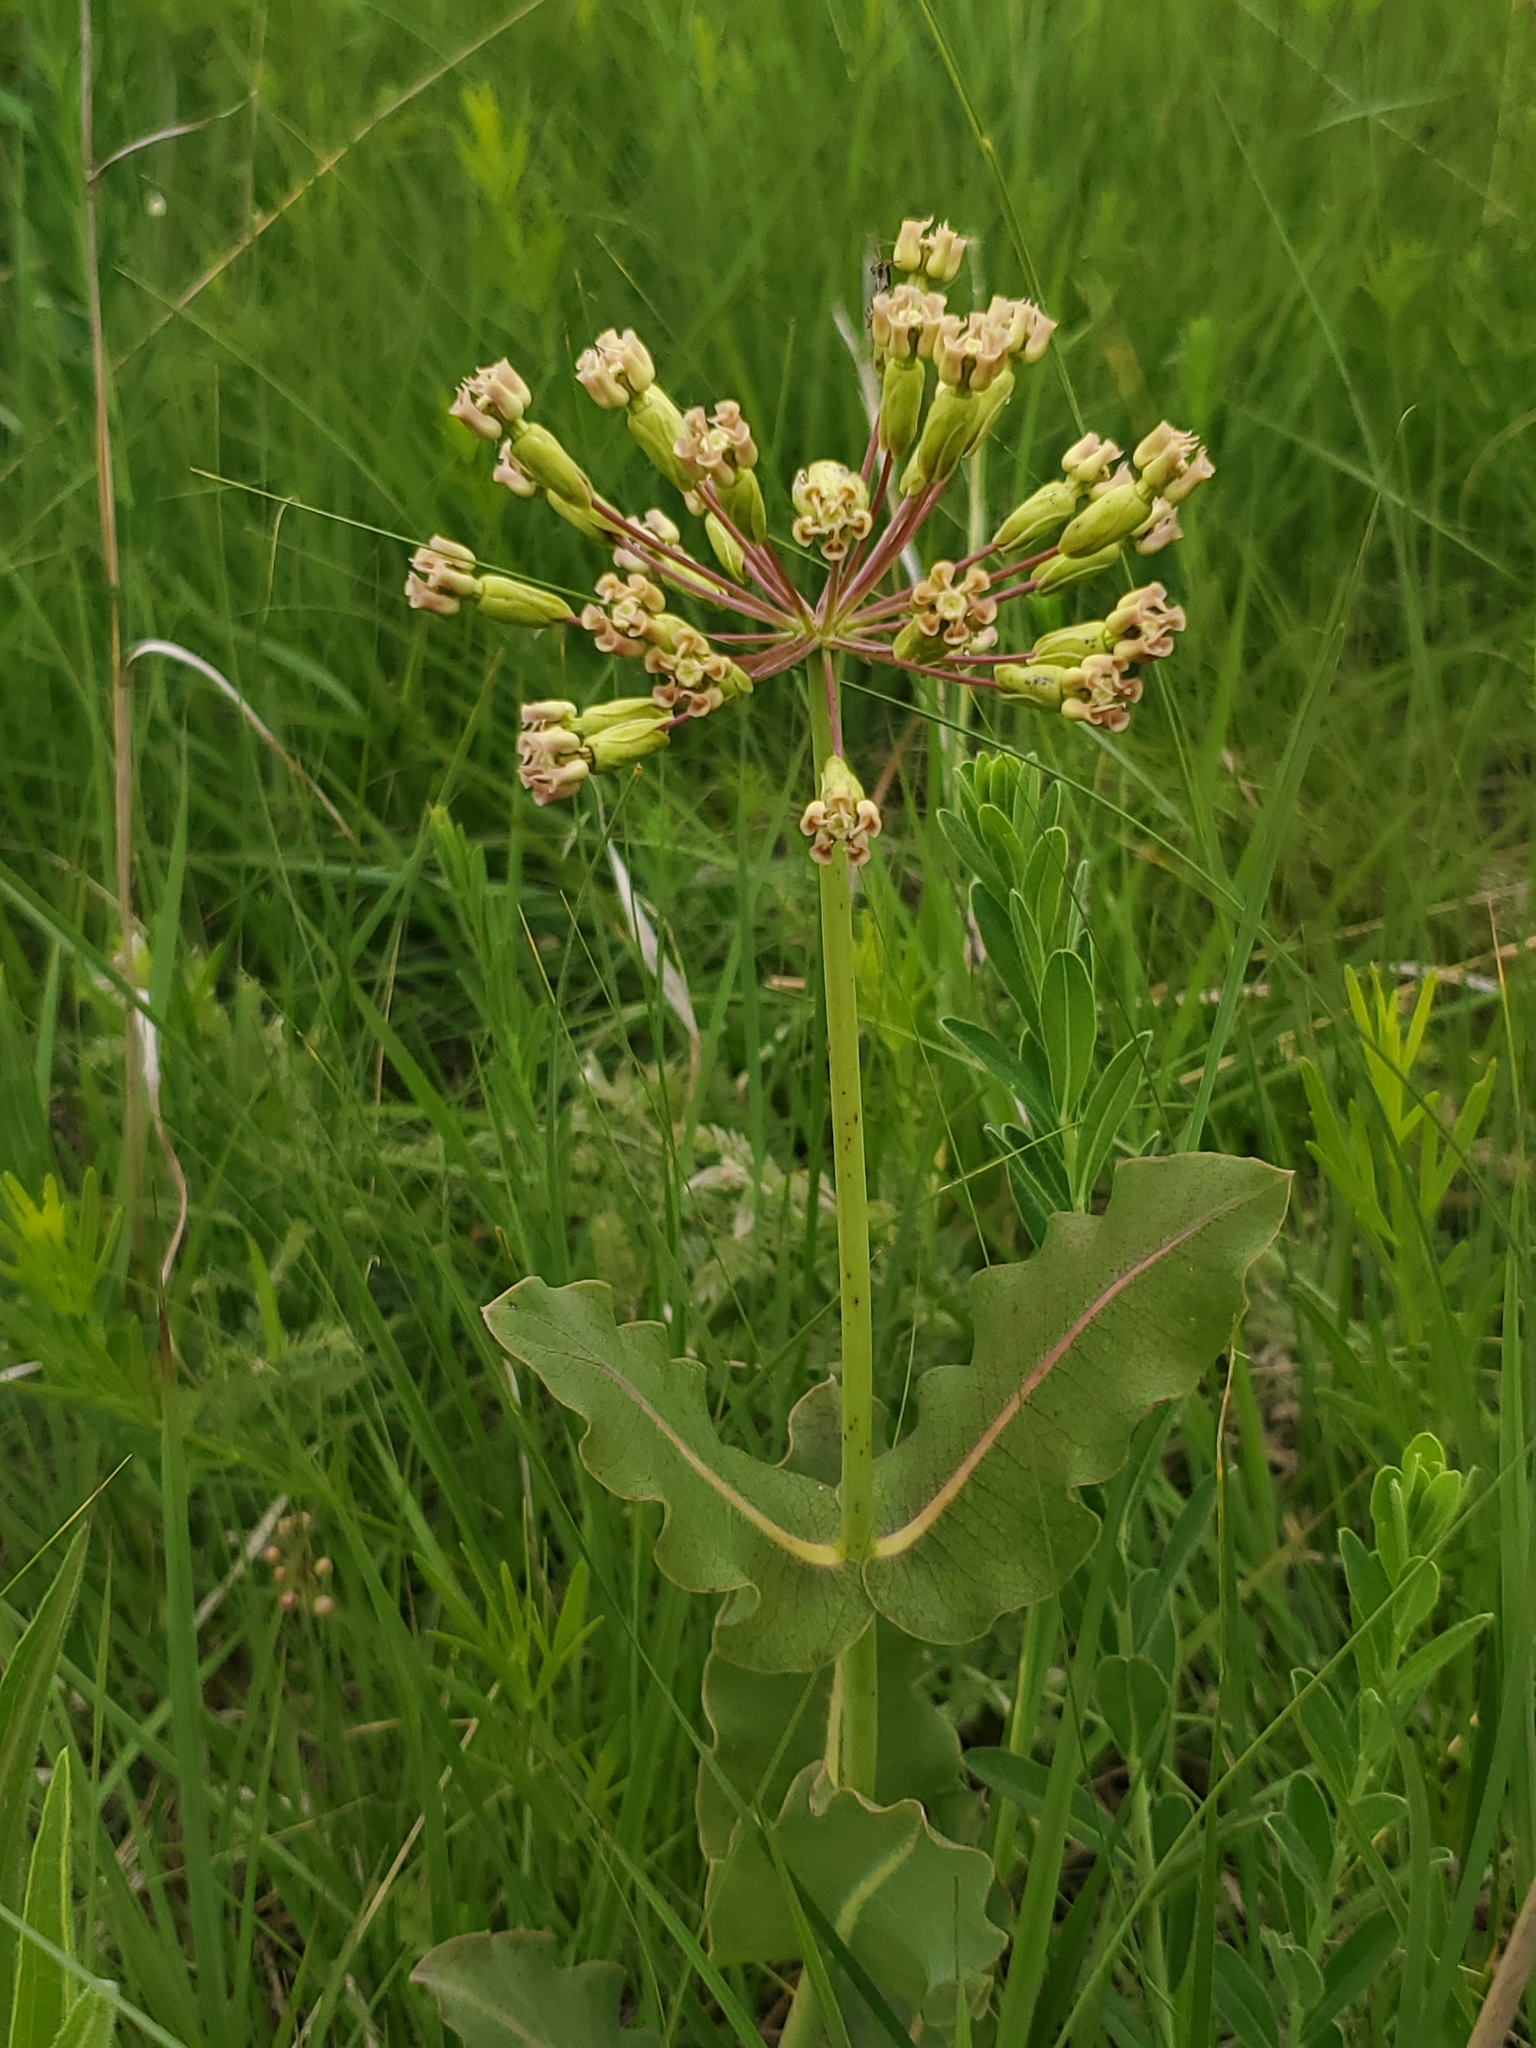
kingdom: Plantae
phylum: Tracheophyta
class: Magnoliopsida
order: Gentianales
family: Apocynaceae
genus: Asclepias
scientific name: Asclepias amplexicaulis
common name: Blunt-leaf milkweed
